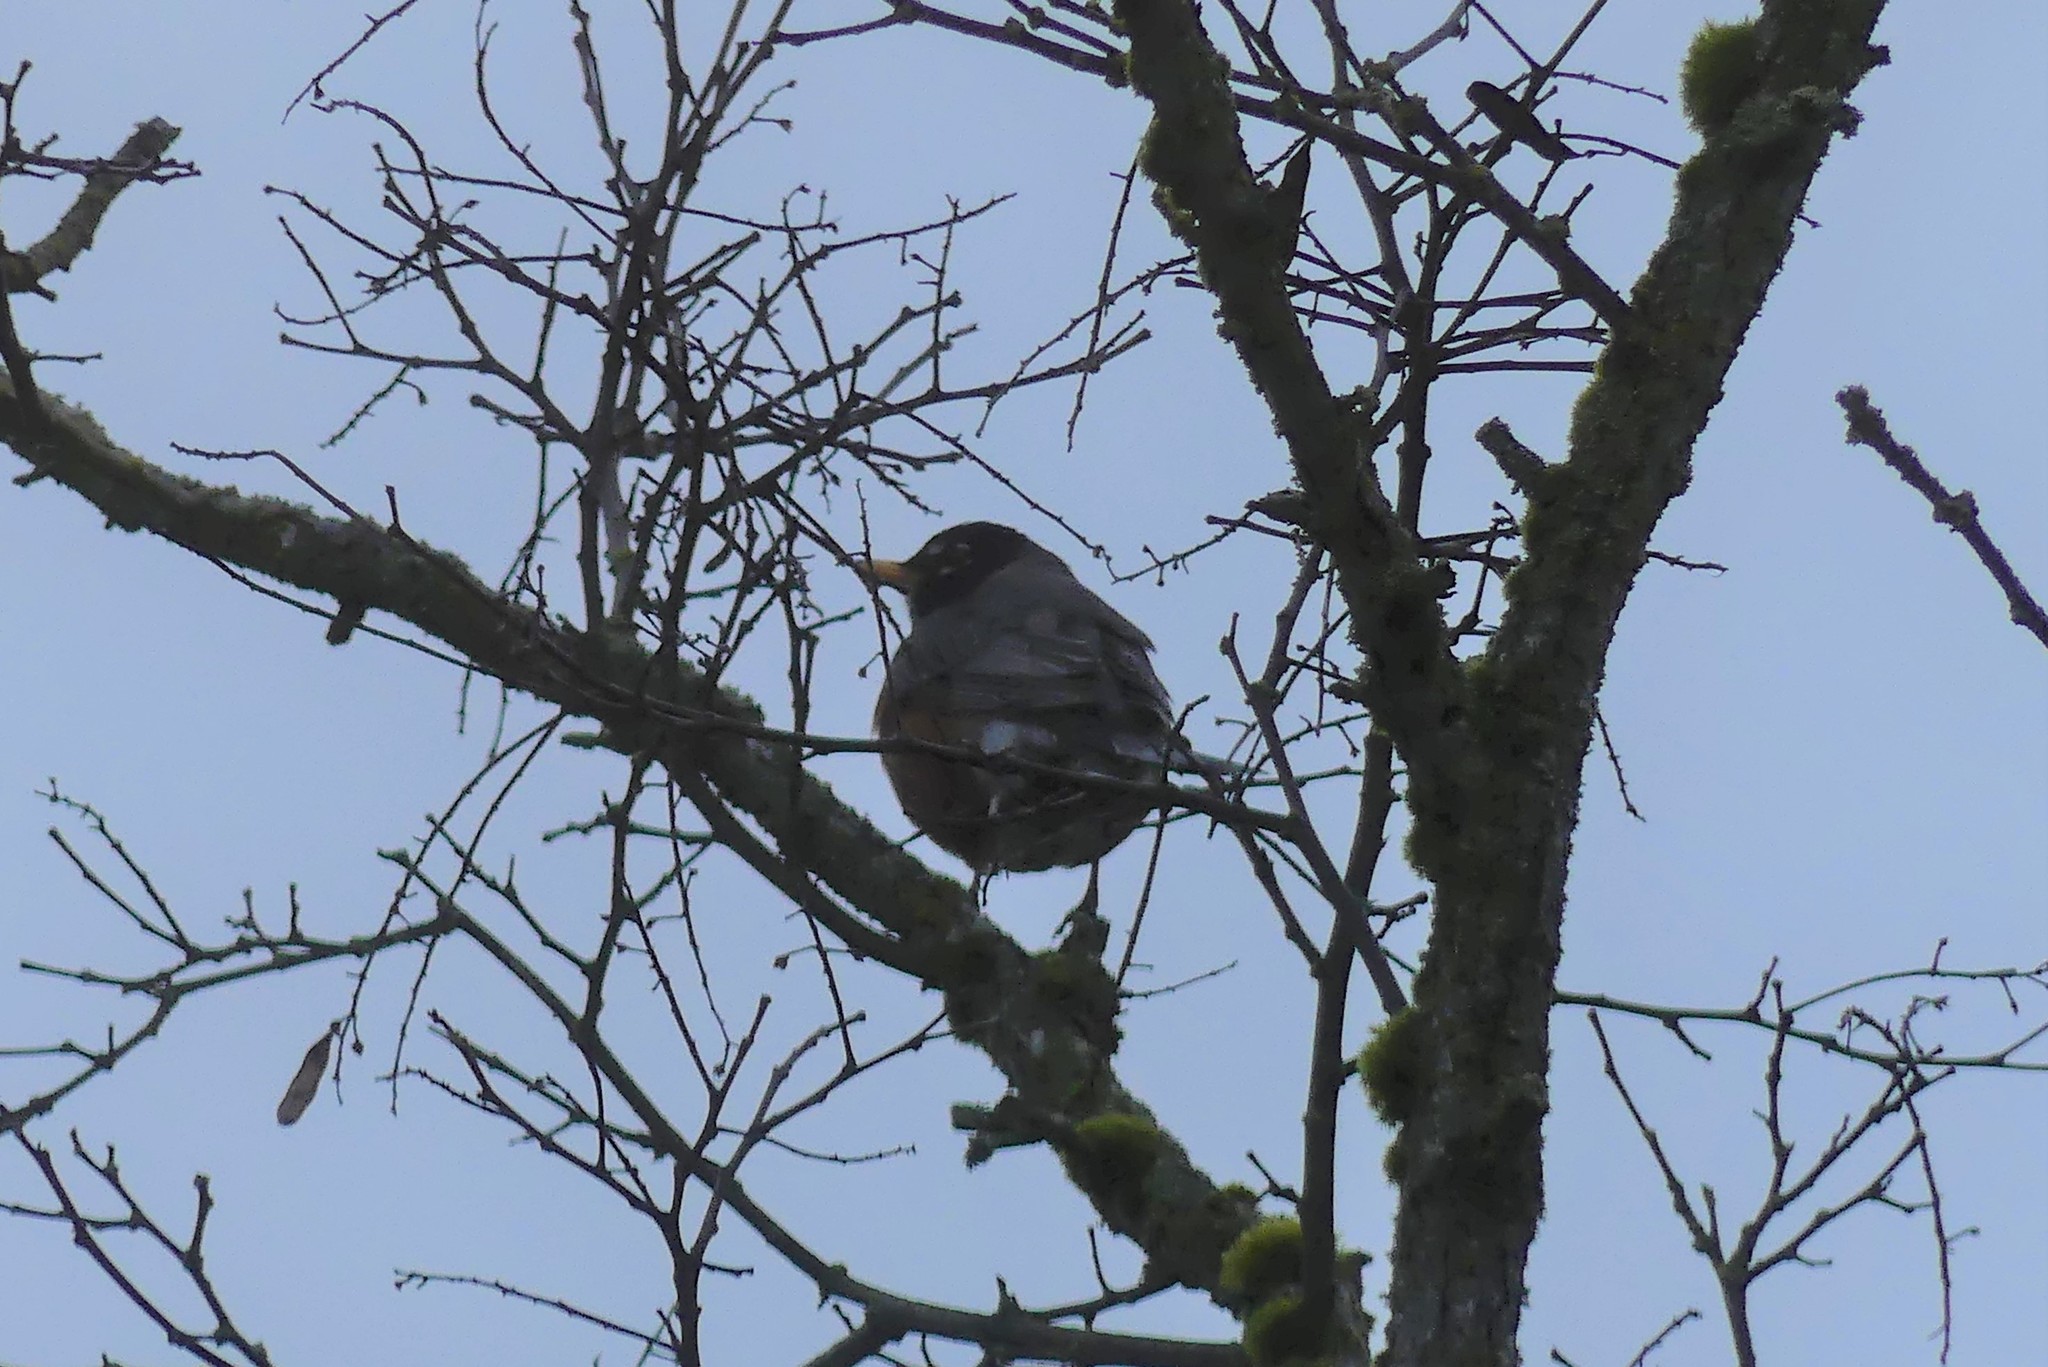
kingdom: Animalia
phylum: Chordata
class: Aves
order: Passeriformes
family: Turdidae
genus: Turdus
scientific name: Turdus migratorius
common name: American robin
